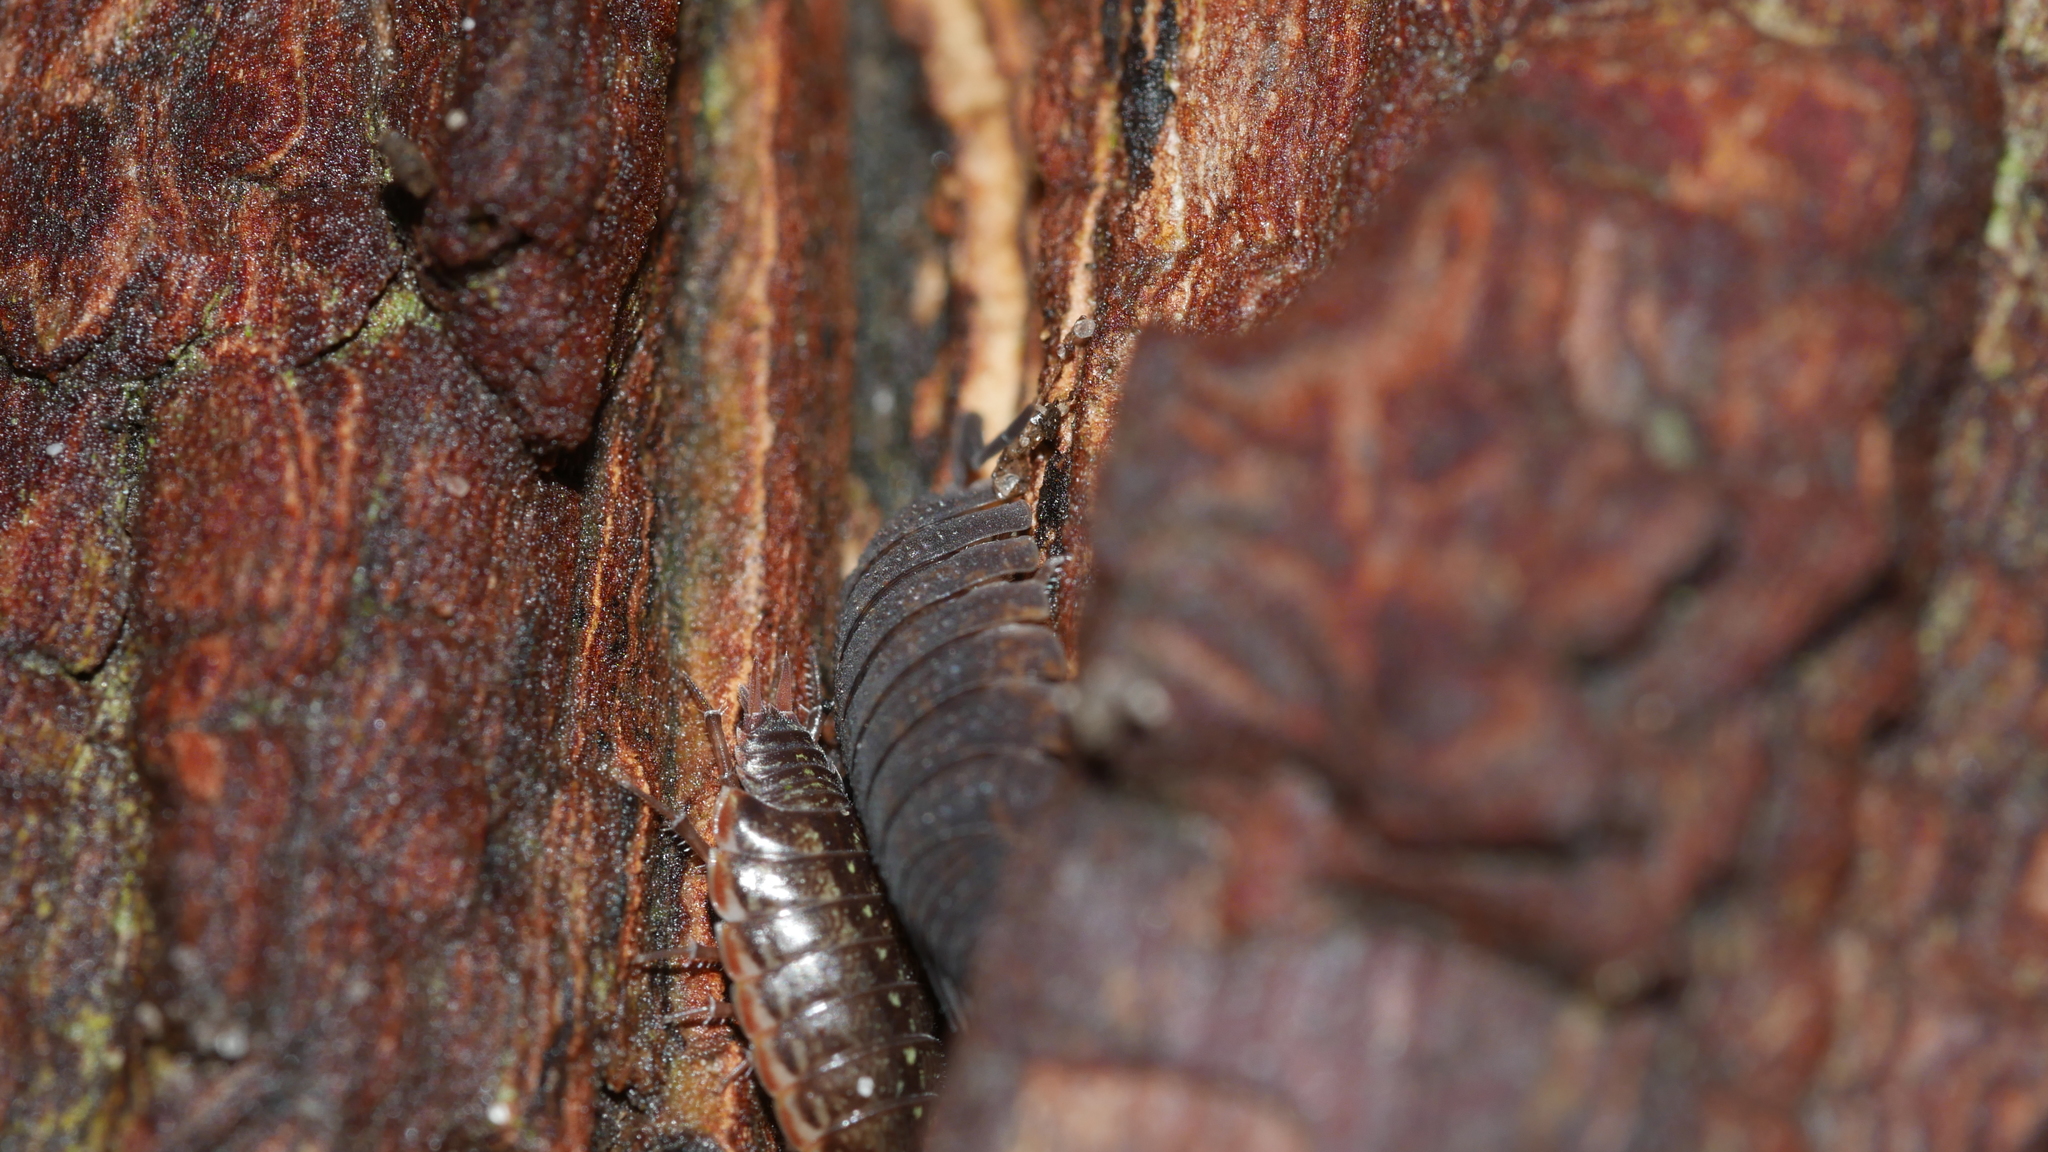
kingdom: Animalia
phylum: Arthropoda
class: Malacostraca
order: Isopoda
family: Porcellionidae
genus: Porcellio
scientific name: Porcellio scaber
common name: Common rough woodlouse
